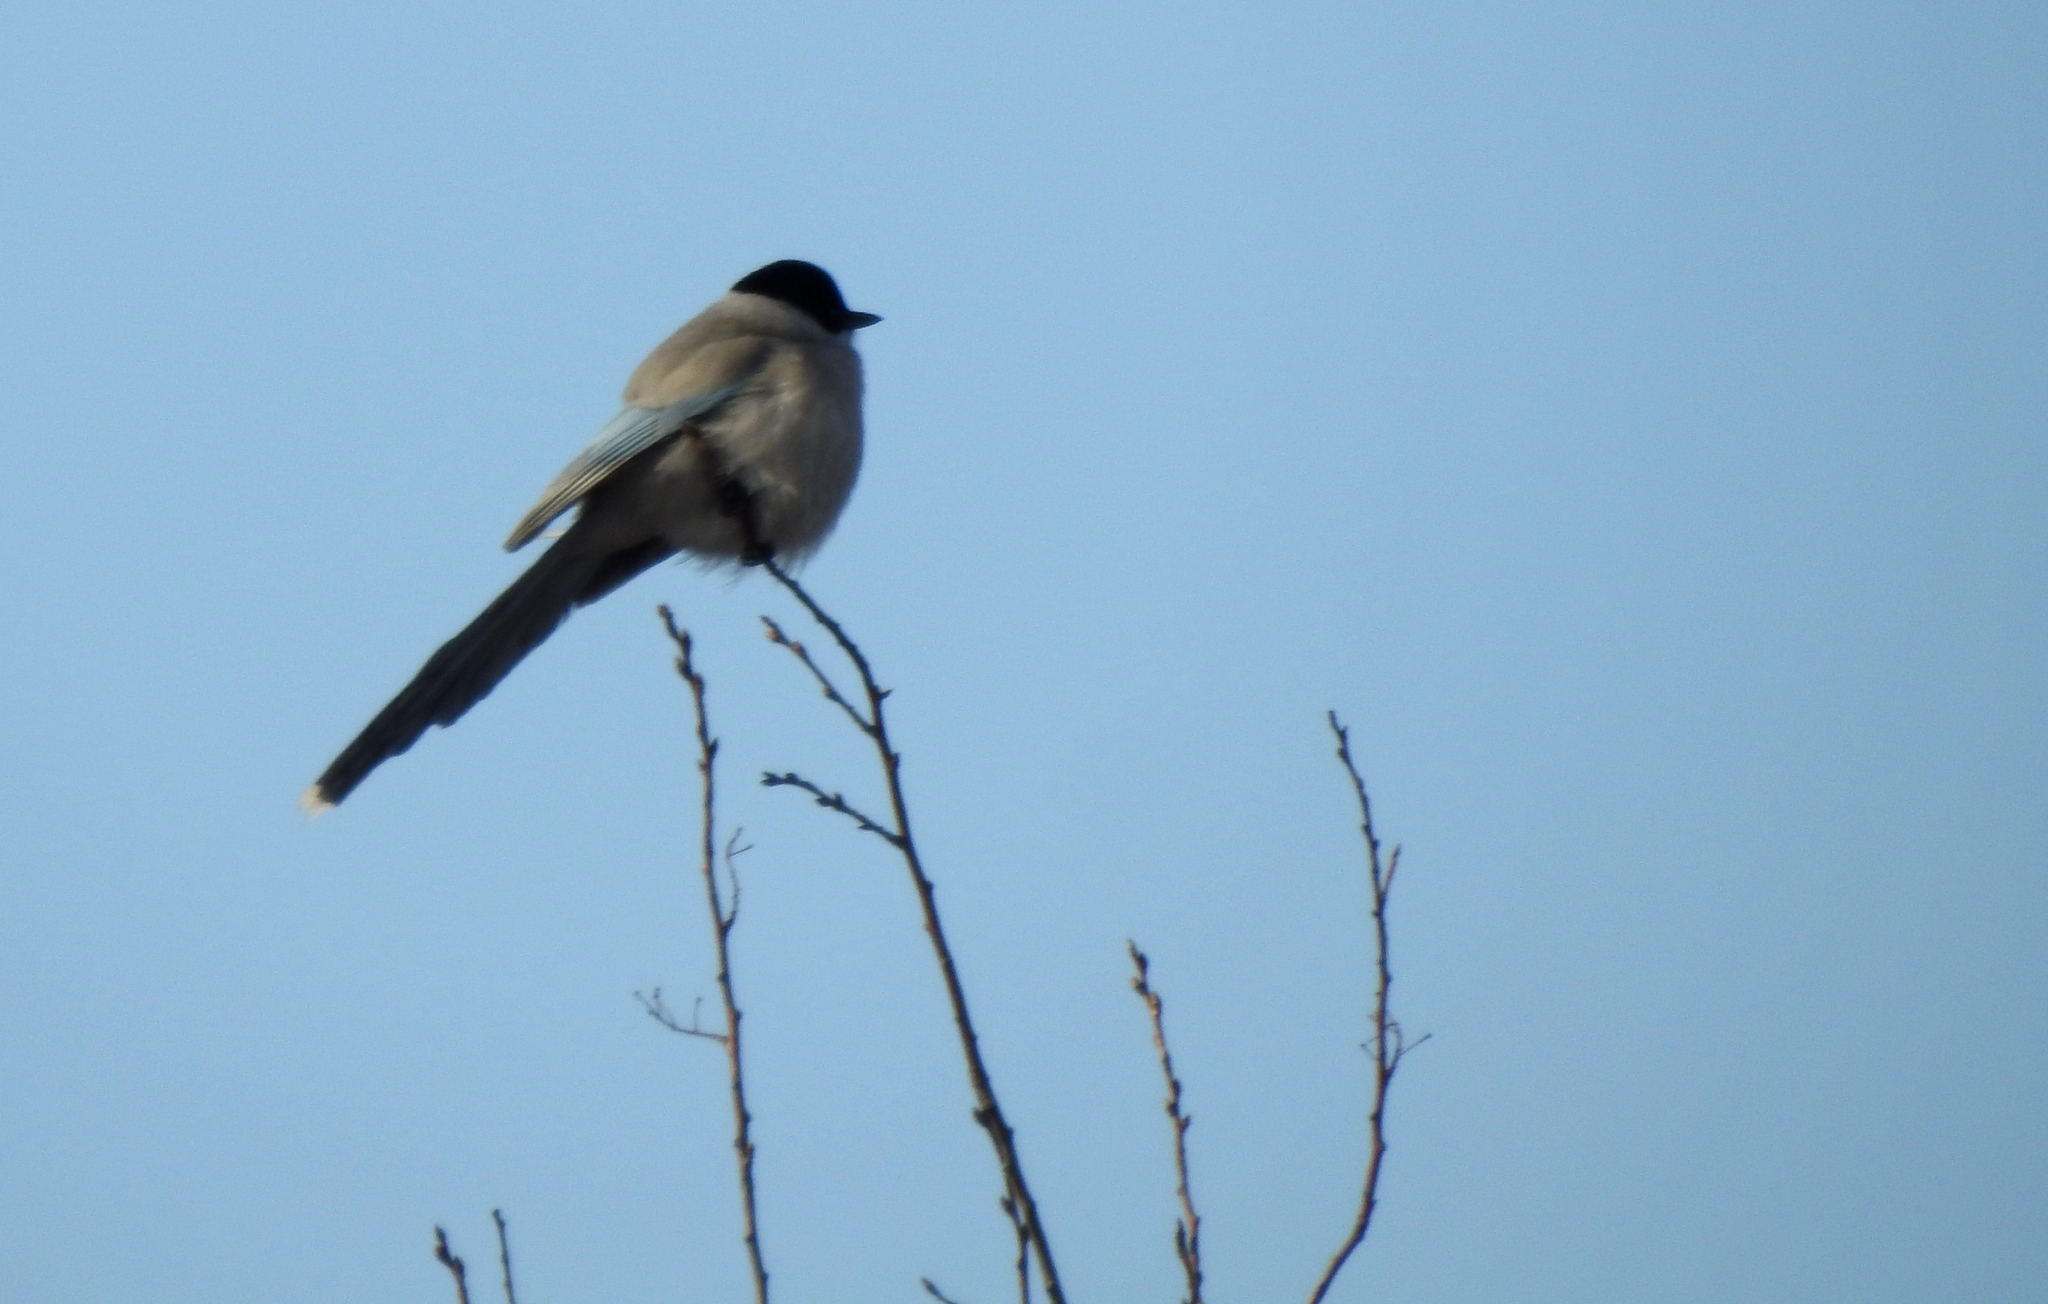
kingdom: Animalia
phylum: Chordata
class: Aves
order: Passeriformes
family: Corvidae
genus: Cyanopica
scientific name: Cyanopica cyanus
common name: Azure-winged magpie
